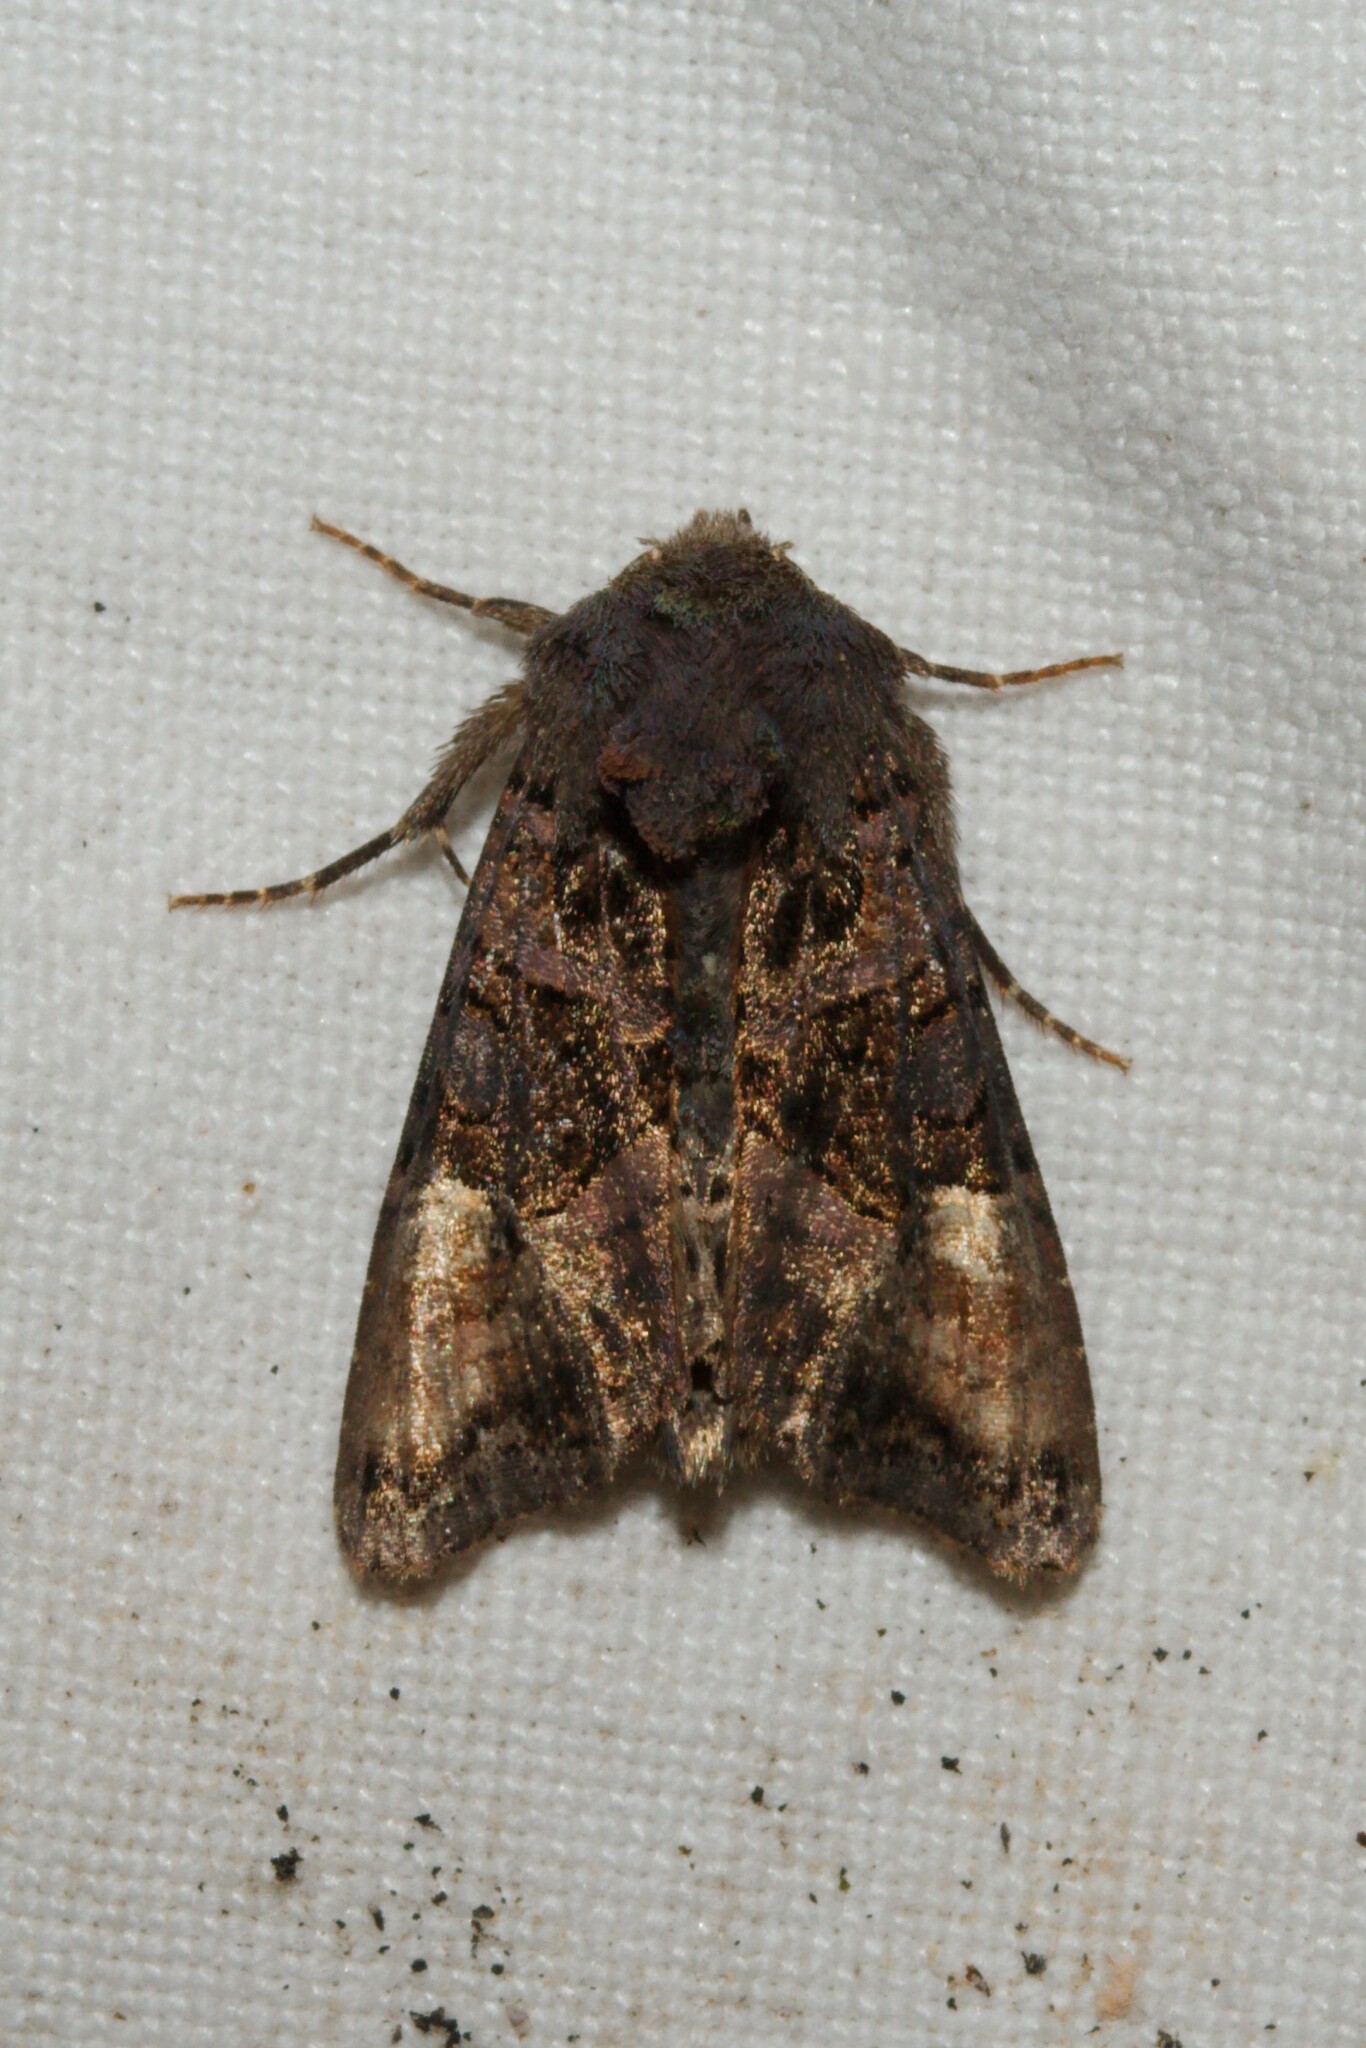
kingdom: Animalia
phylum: Arthropoda
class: Insecta
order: Lepidoptera
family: Noctuidae
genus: Euplexia
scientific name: Euplexia lucipara
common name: Small angle shades
